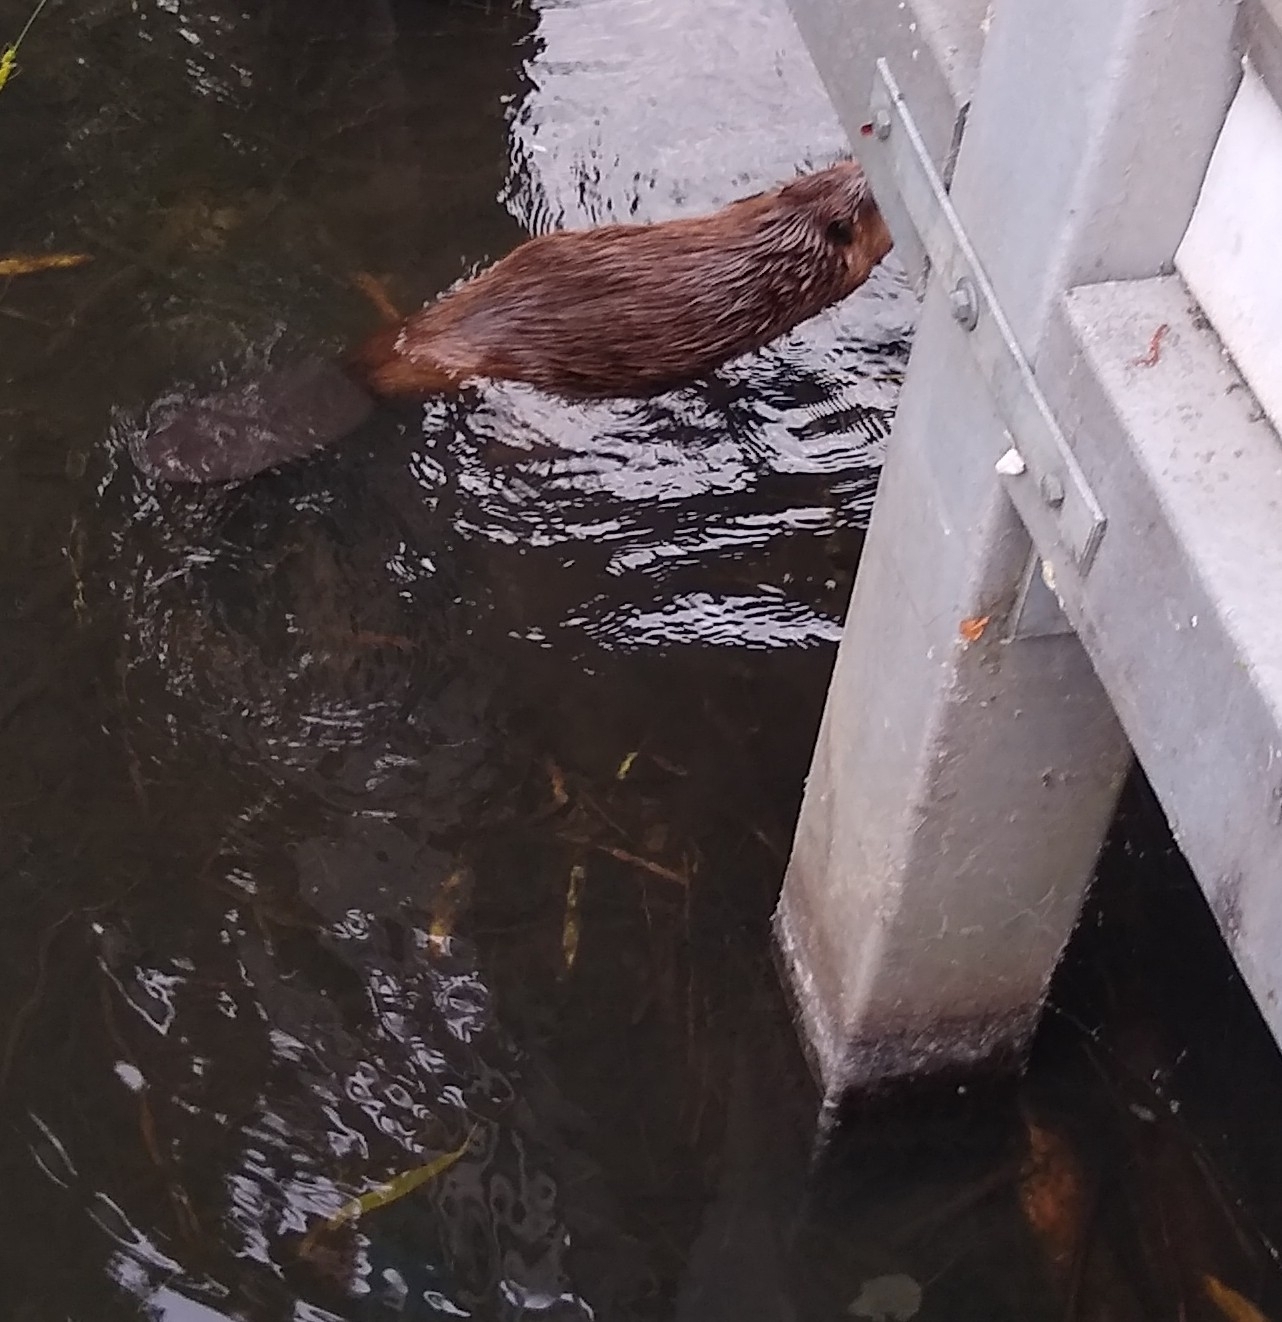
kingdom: Animalia
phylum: Chordata
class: Mammalia
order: Rodentia
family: Castoridae
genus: Castor
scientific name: Castor canadensis
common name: American beaver
